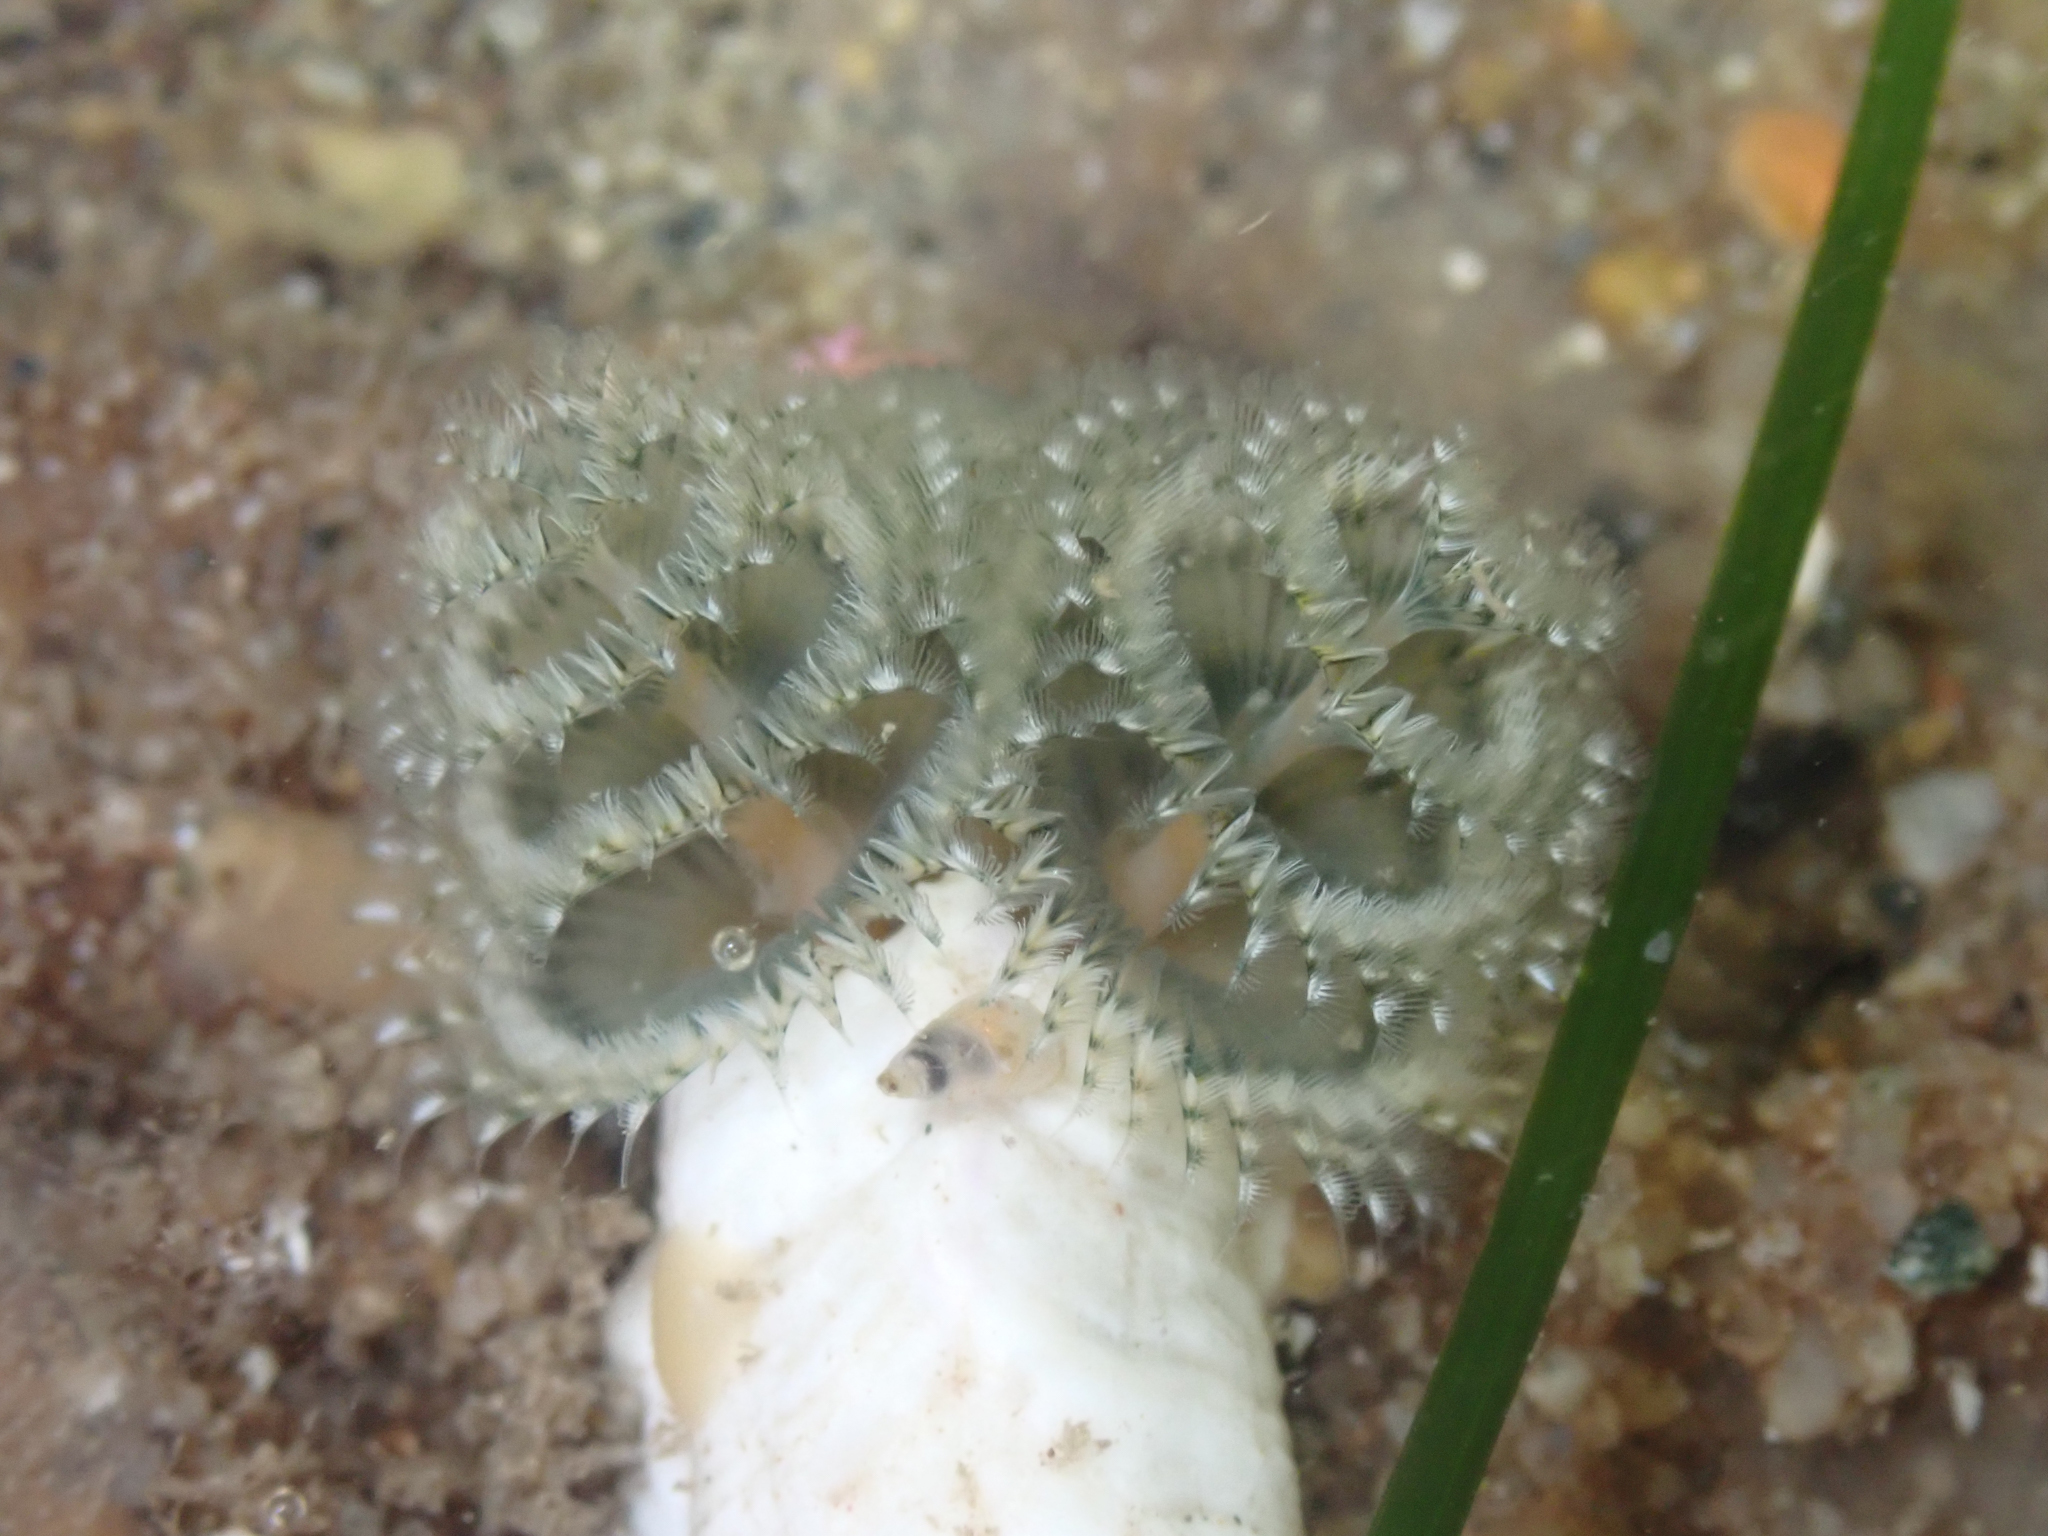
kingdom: Animalia
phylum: Annelida
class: Polychaeta
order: Sabellida
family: Serpulidae
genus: Spirobranchus
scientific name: Spirobranchus spinosus
